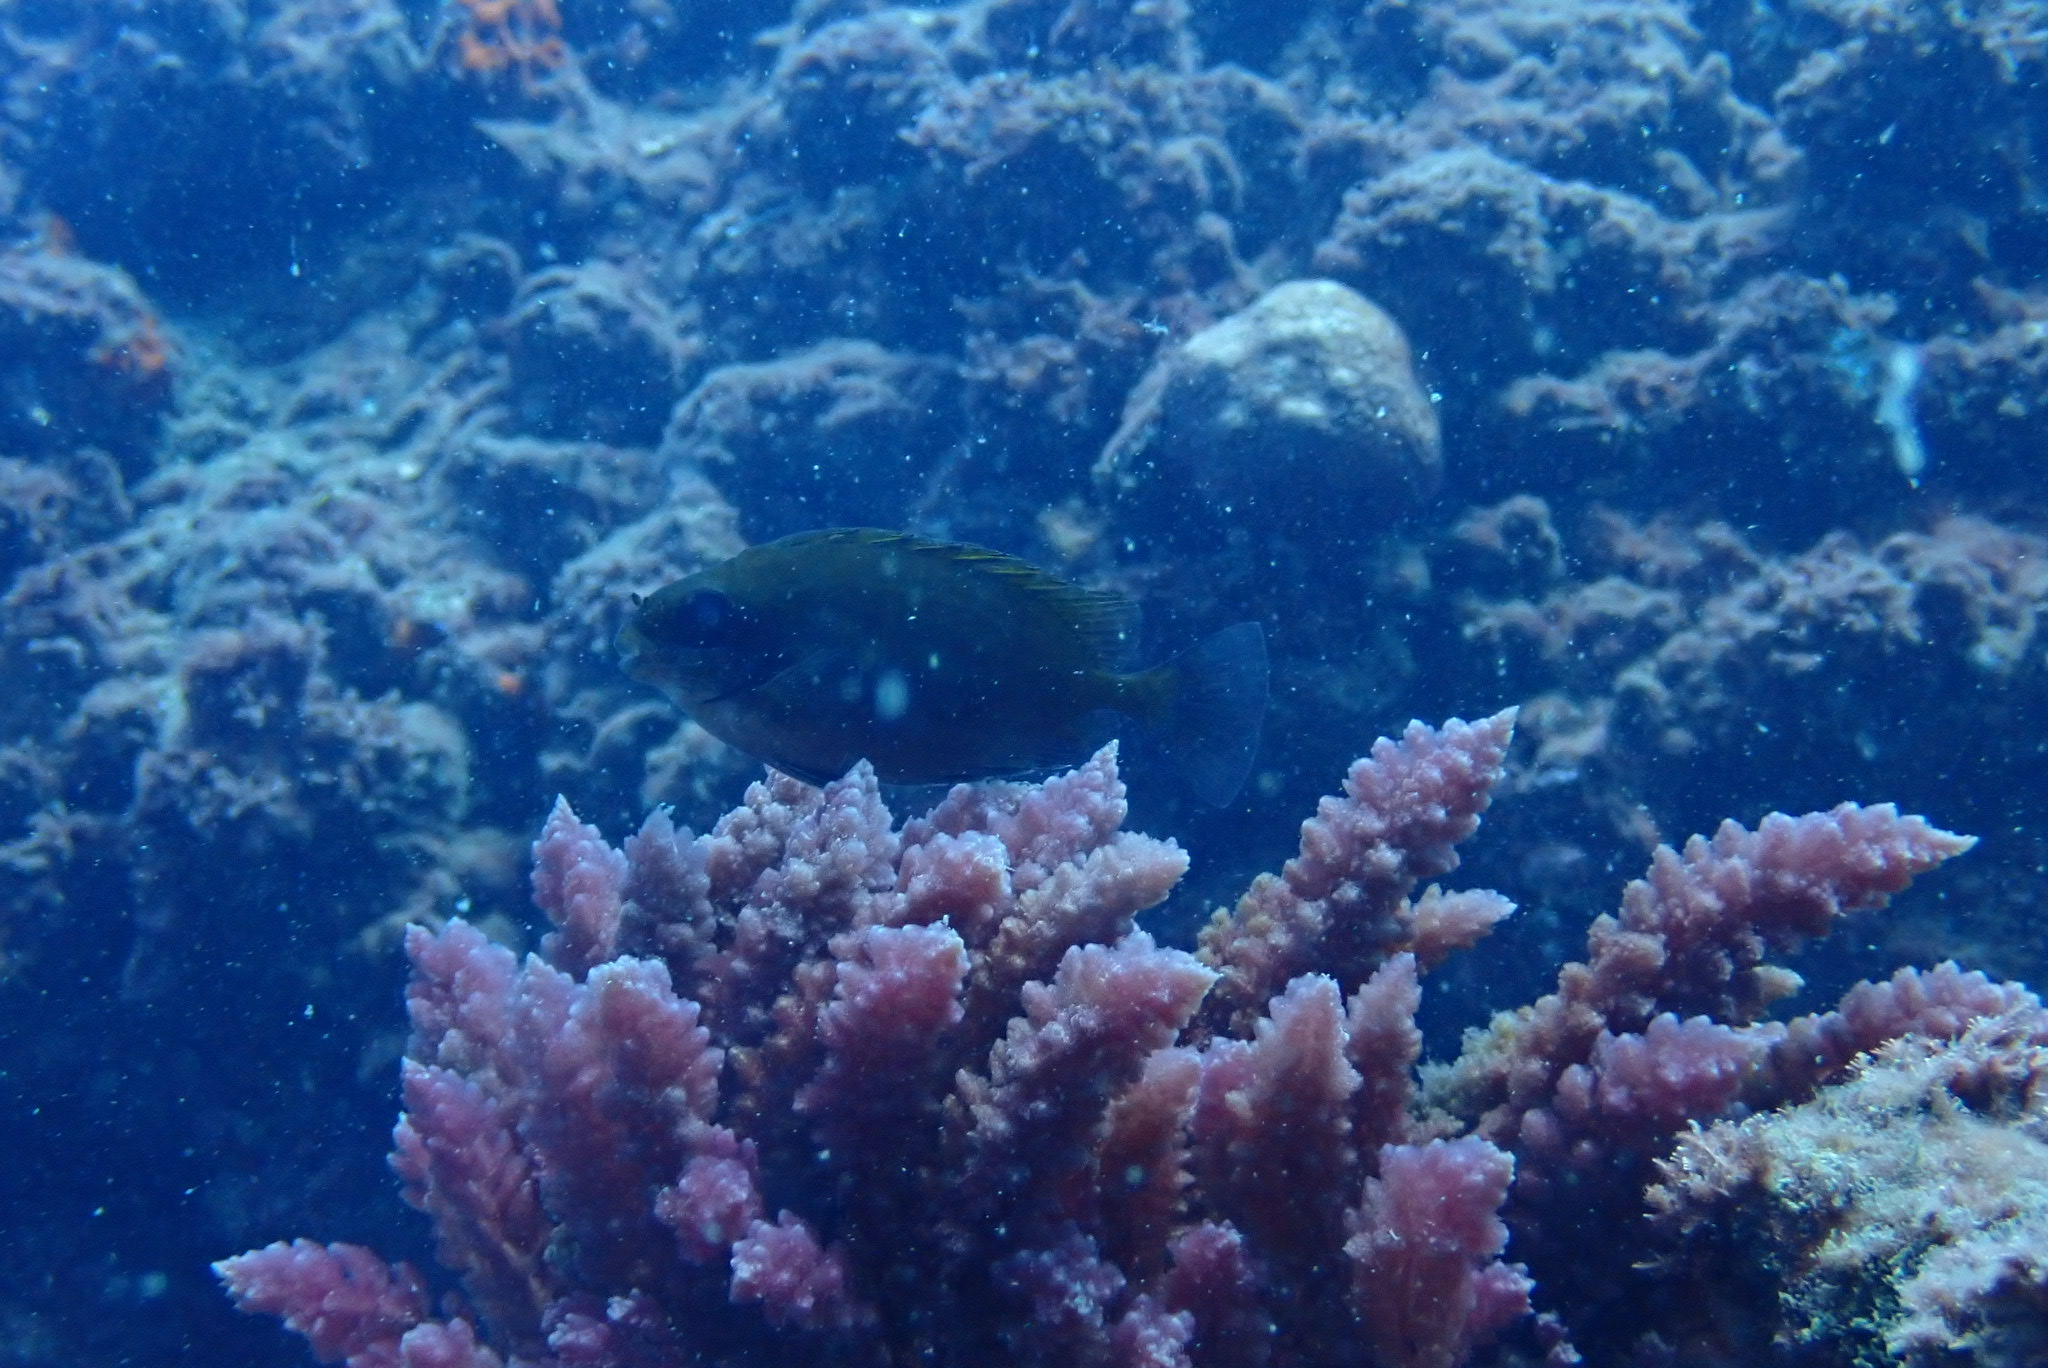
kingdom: Animalia
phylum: Chordata
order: Perciformes
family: Siganidae
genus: Siganus
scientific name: Siganus luridus
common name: Dusky spinefoot
